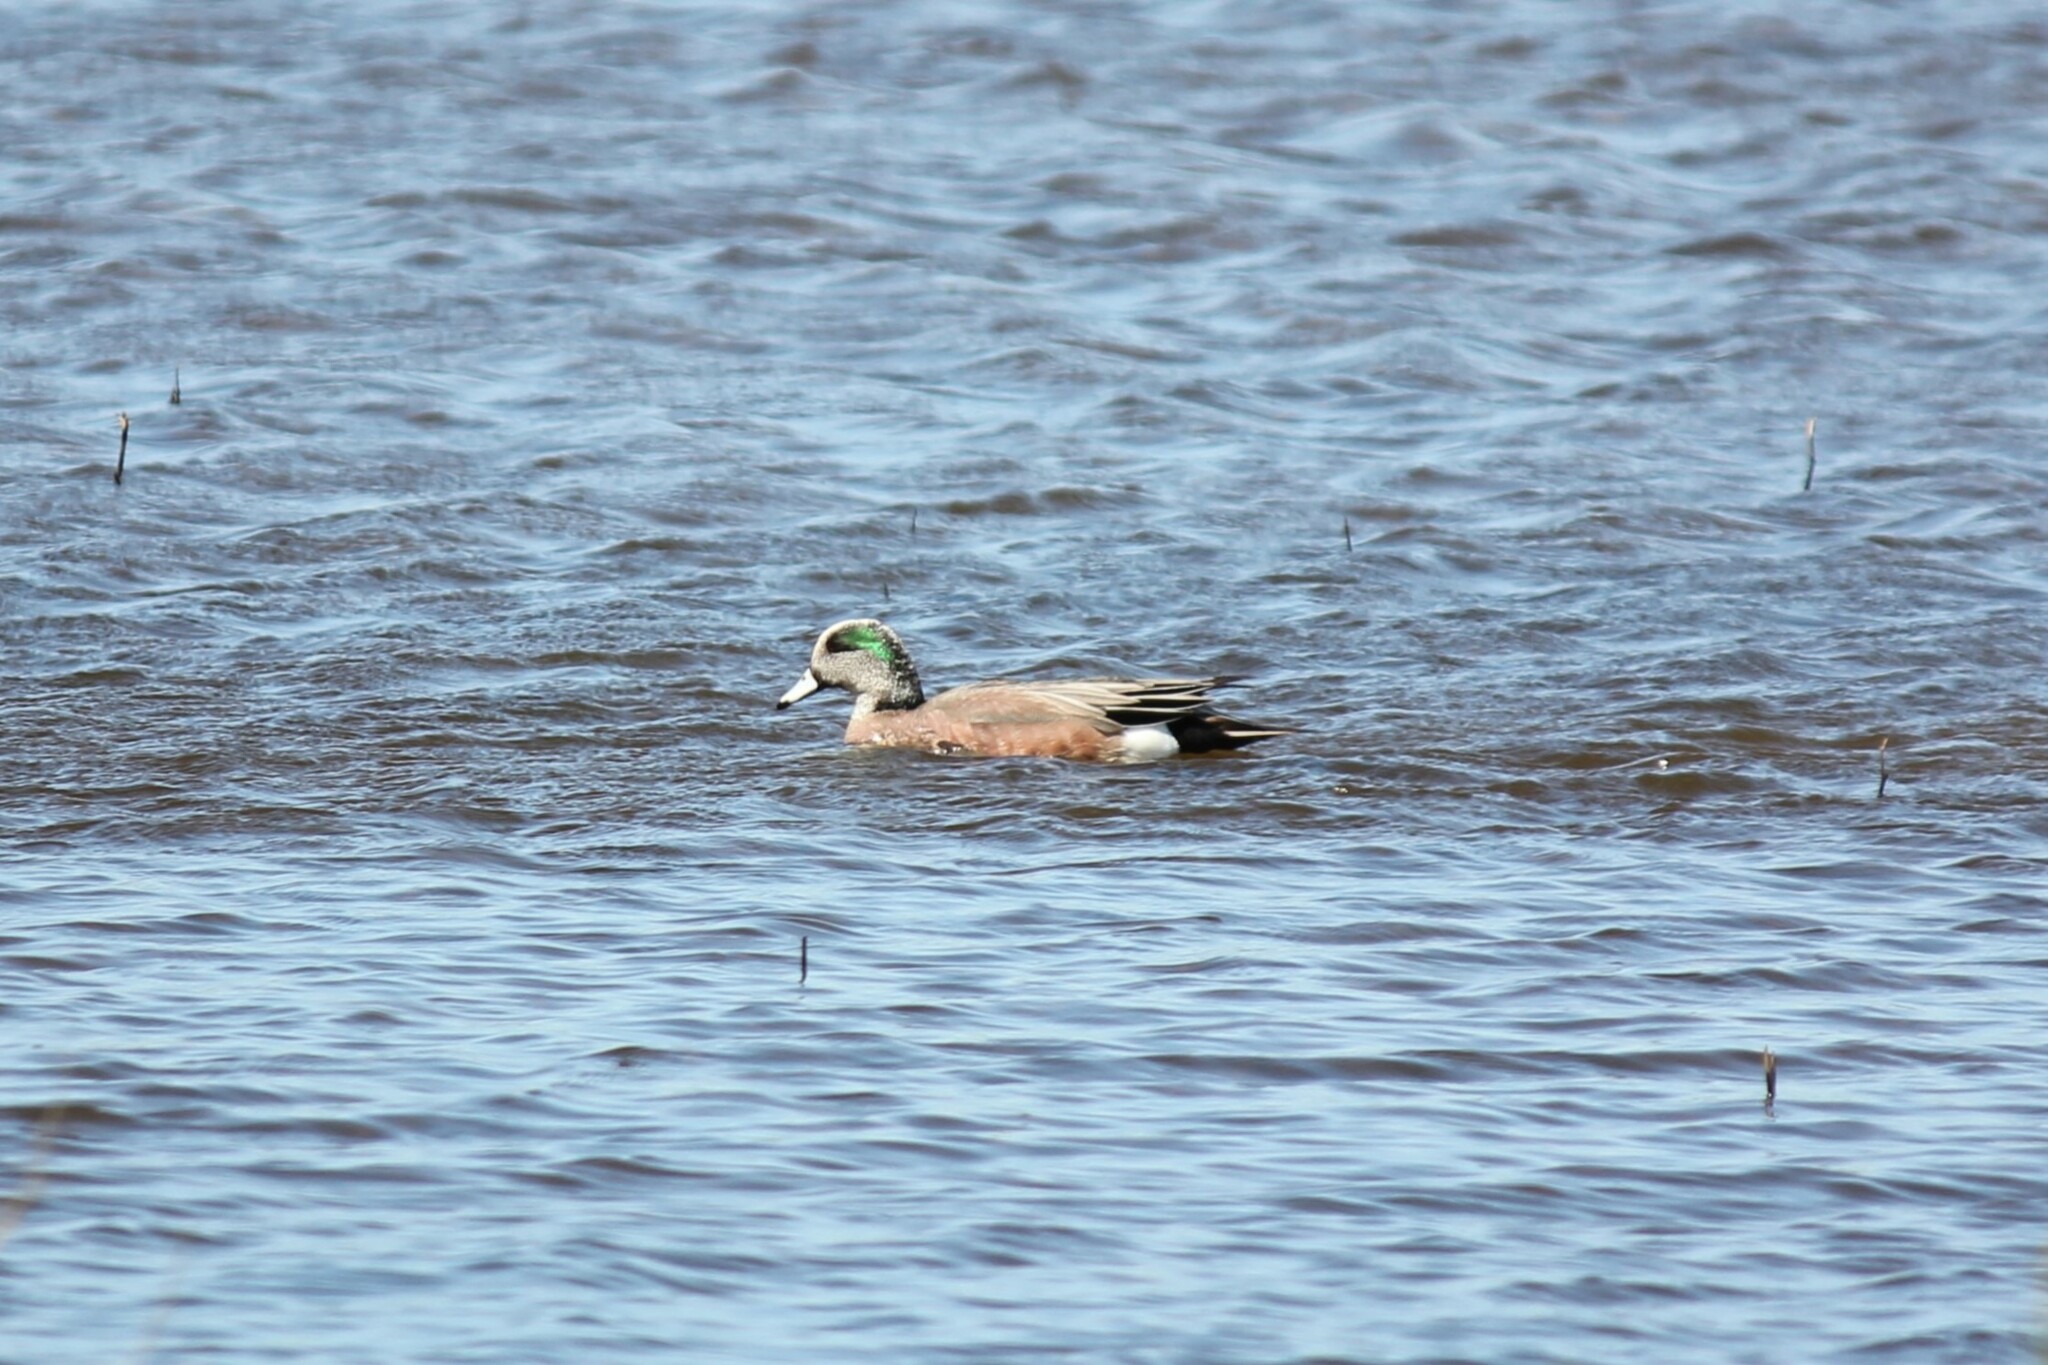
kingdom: Animalia
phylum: Chordata
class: Aves
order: Anseriformes
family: Anatidae
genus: Mareca
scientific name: Mareca americana
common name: American wigeon
